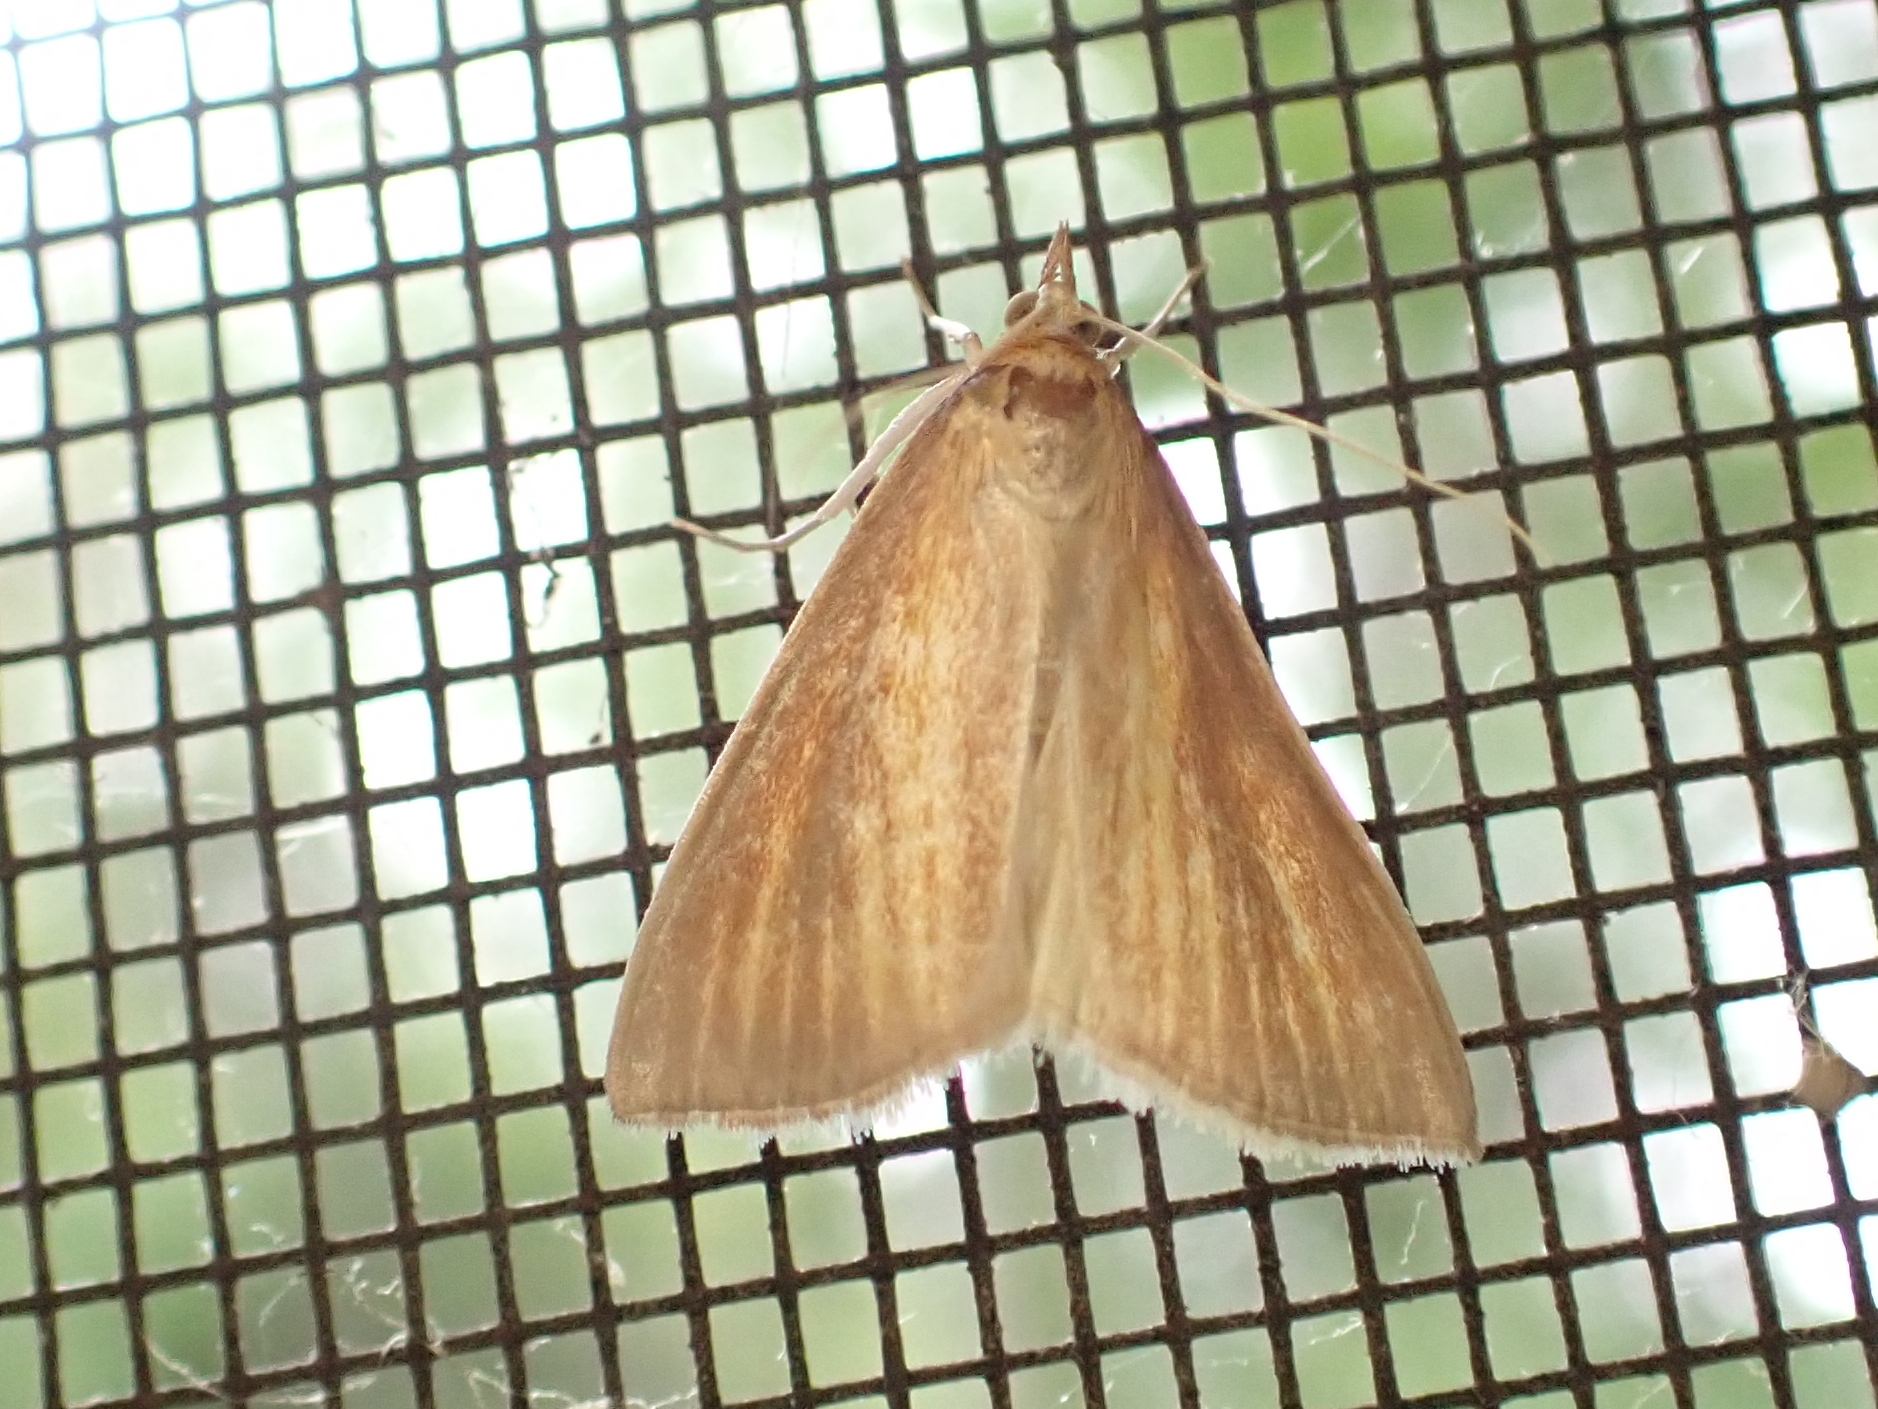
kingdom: Animalia
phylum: Arthropoda
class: Insecta
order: Lepidoptera
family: Crambidae
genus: Nascia
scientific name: Nascia acutellus
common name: Streaked orange moth
